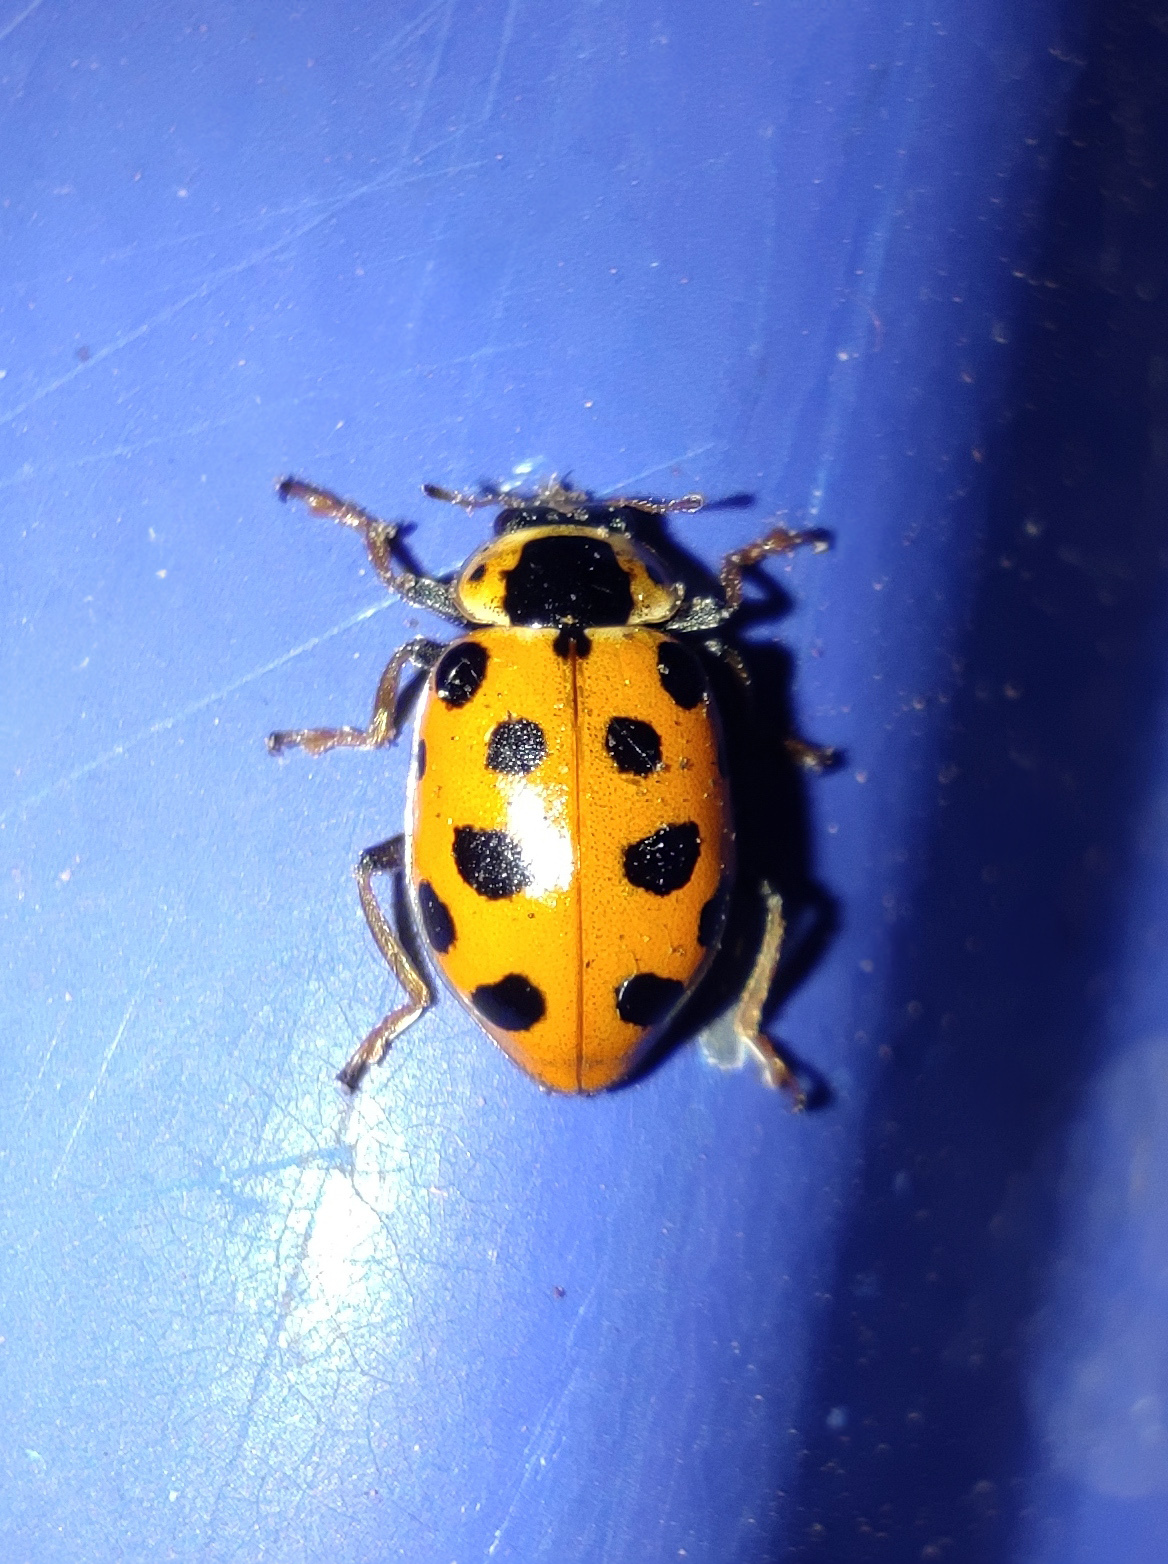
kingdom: Animalia
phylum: Arthropoda
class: Insecta
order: Coleoptera
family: Coccinellidae
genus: Hippodamia
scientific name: Hippodamia tredecimpunctata
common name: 13-spot ladybird
